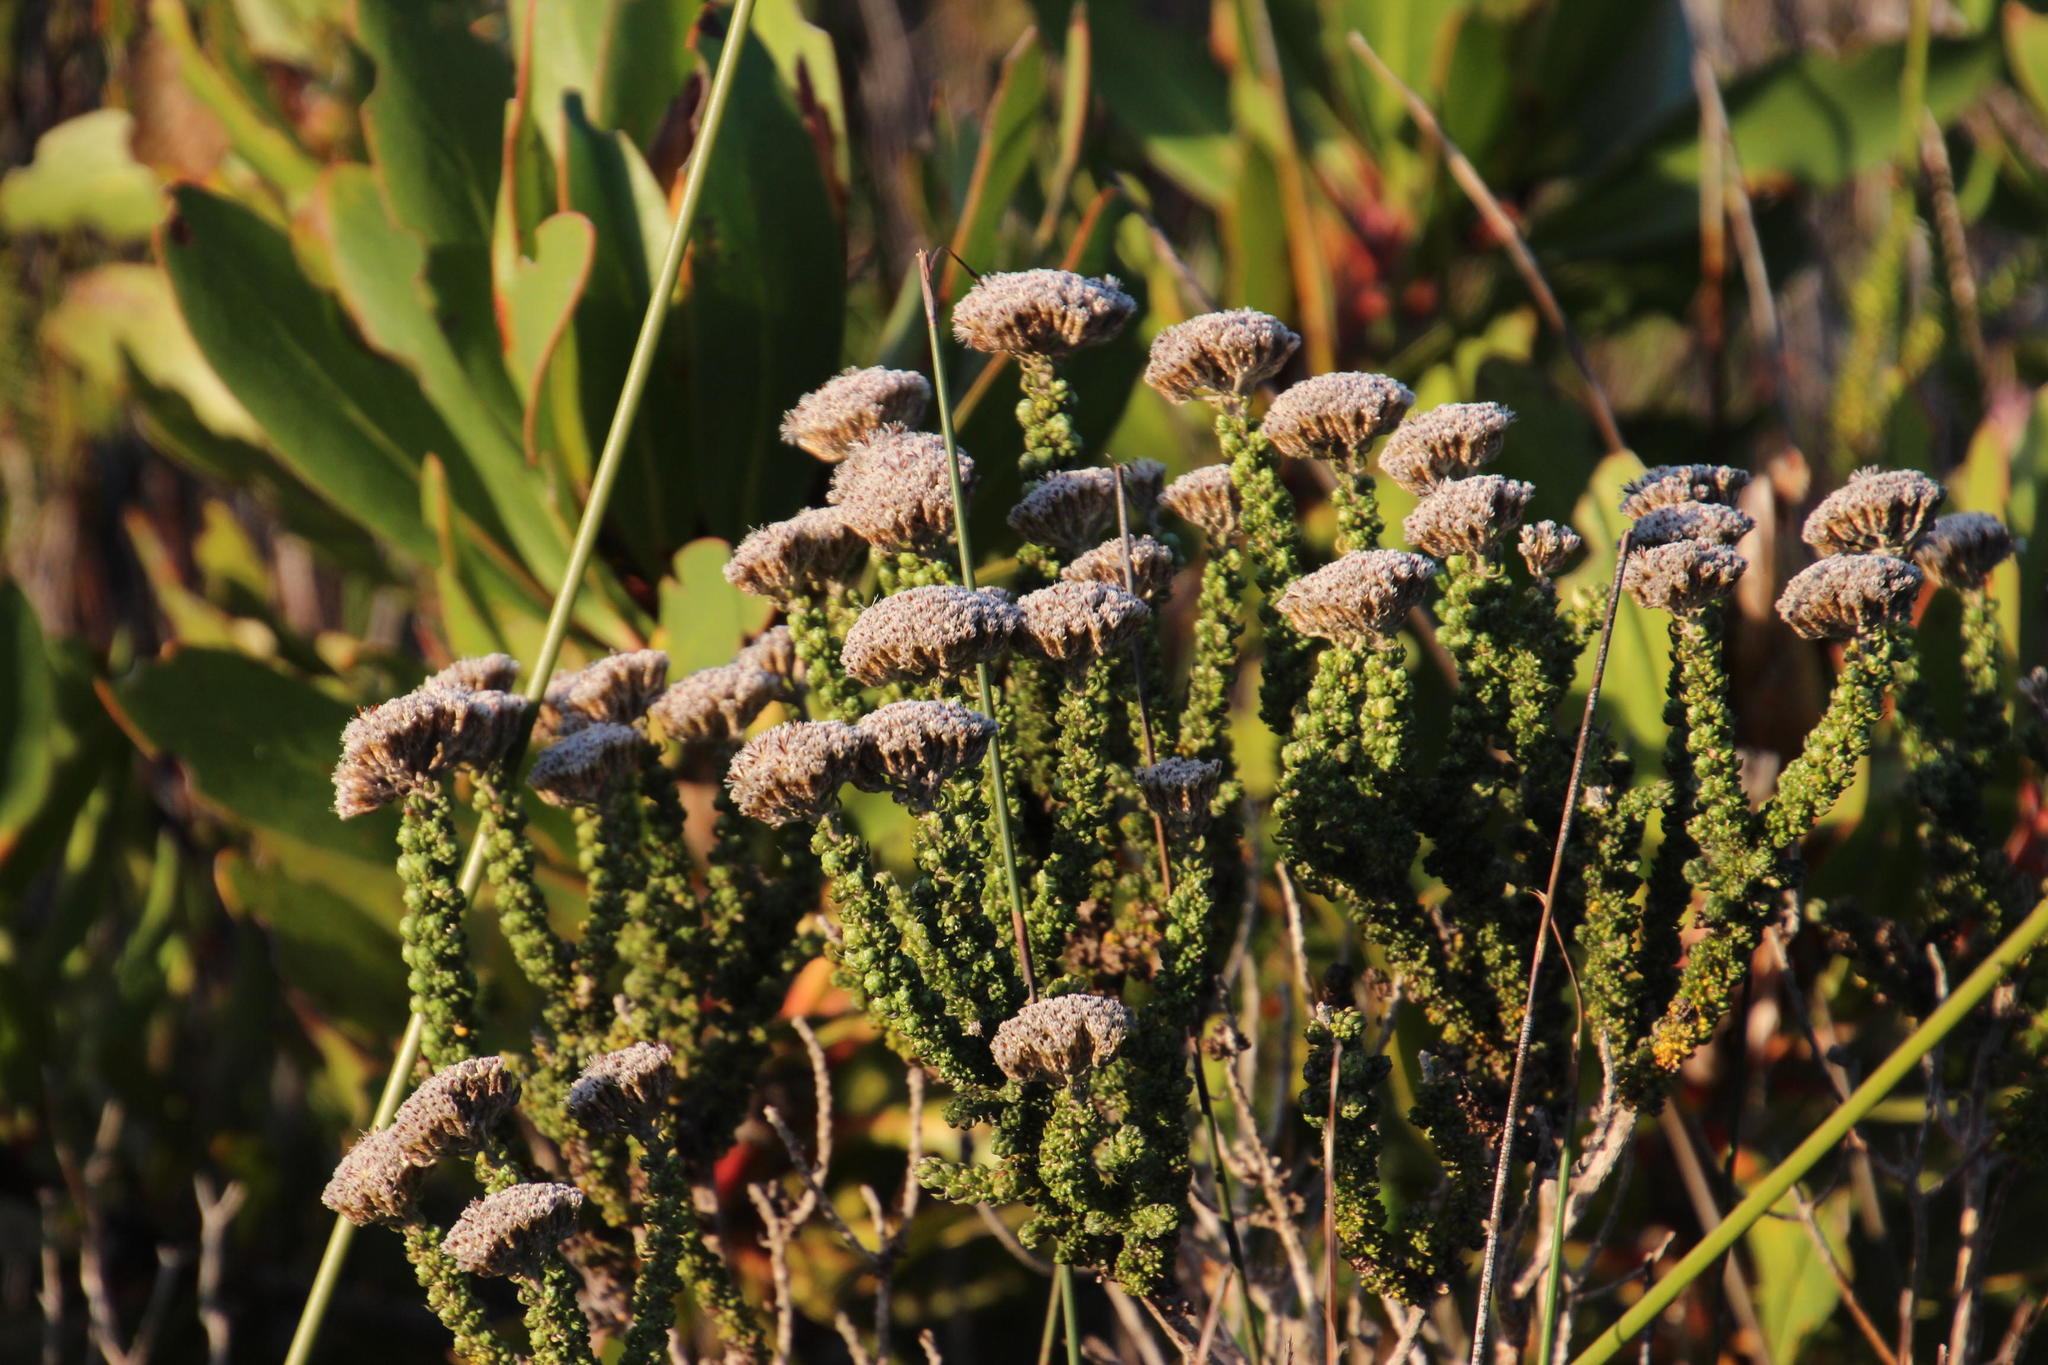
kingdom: Plantae
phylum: Tracheophyta
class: Magnoliopsida
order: Asterales
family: Asteraceae
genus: Metalasia
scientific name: Metalasia calcicola
